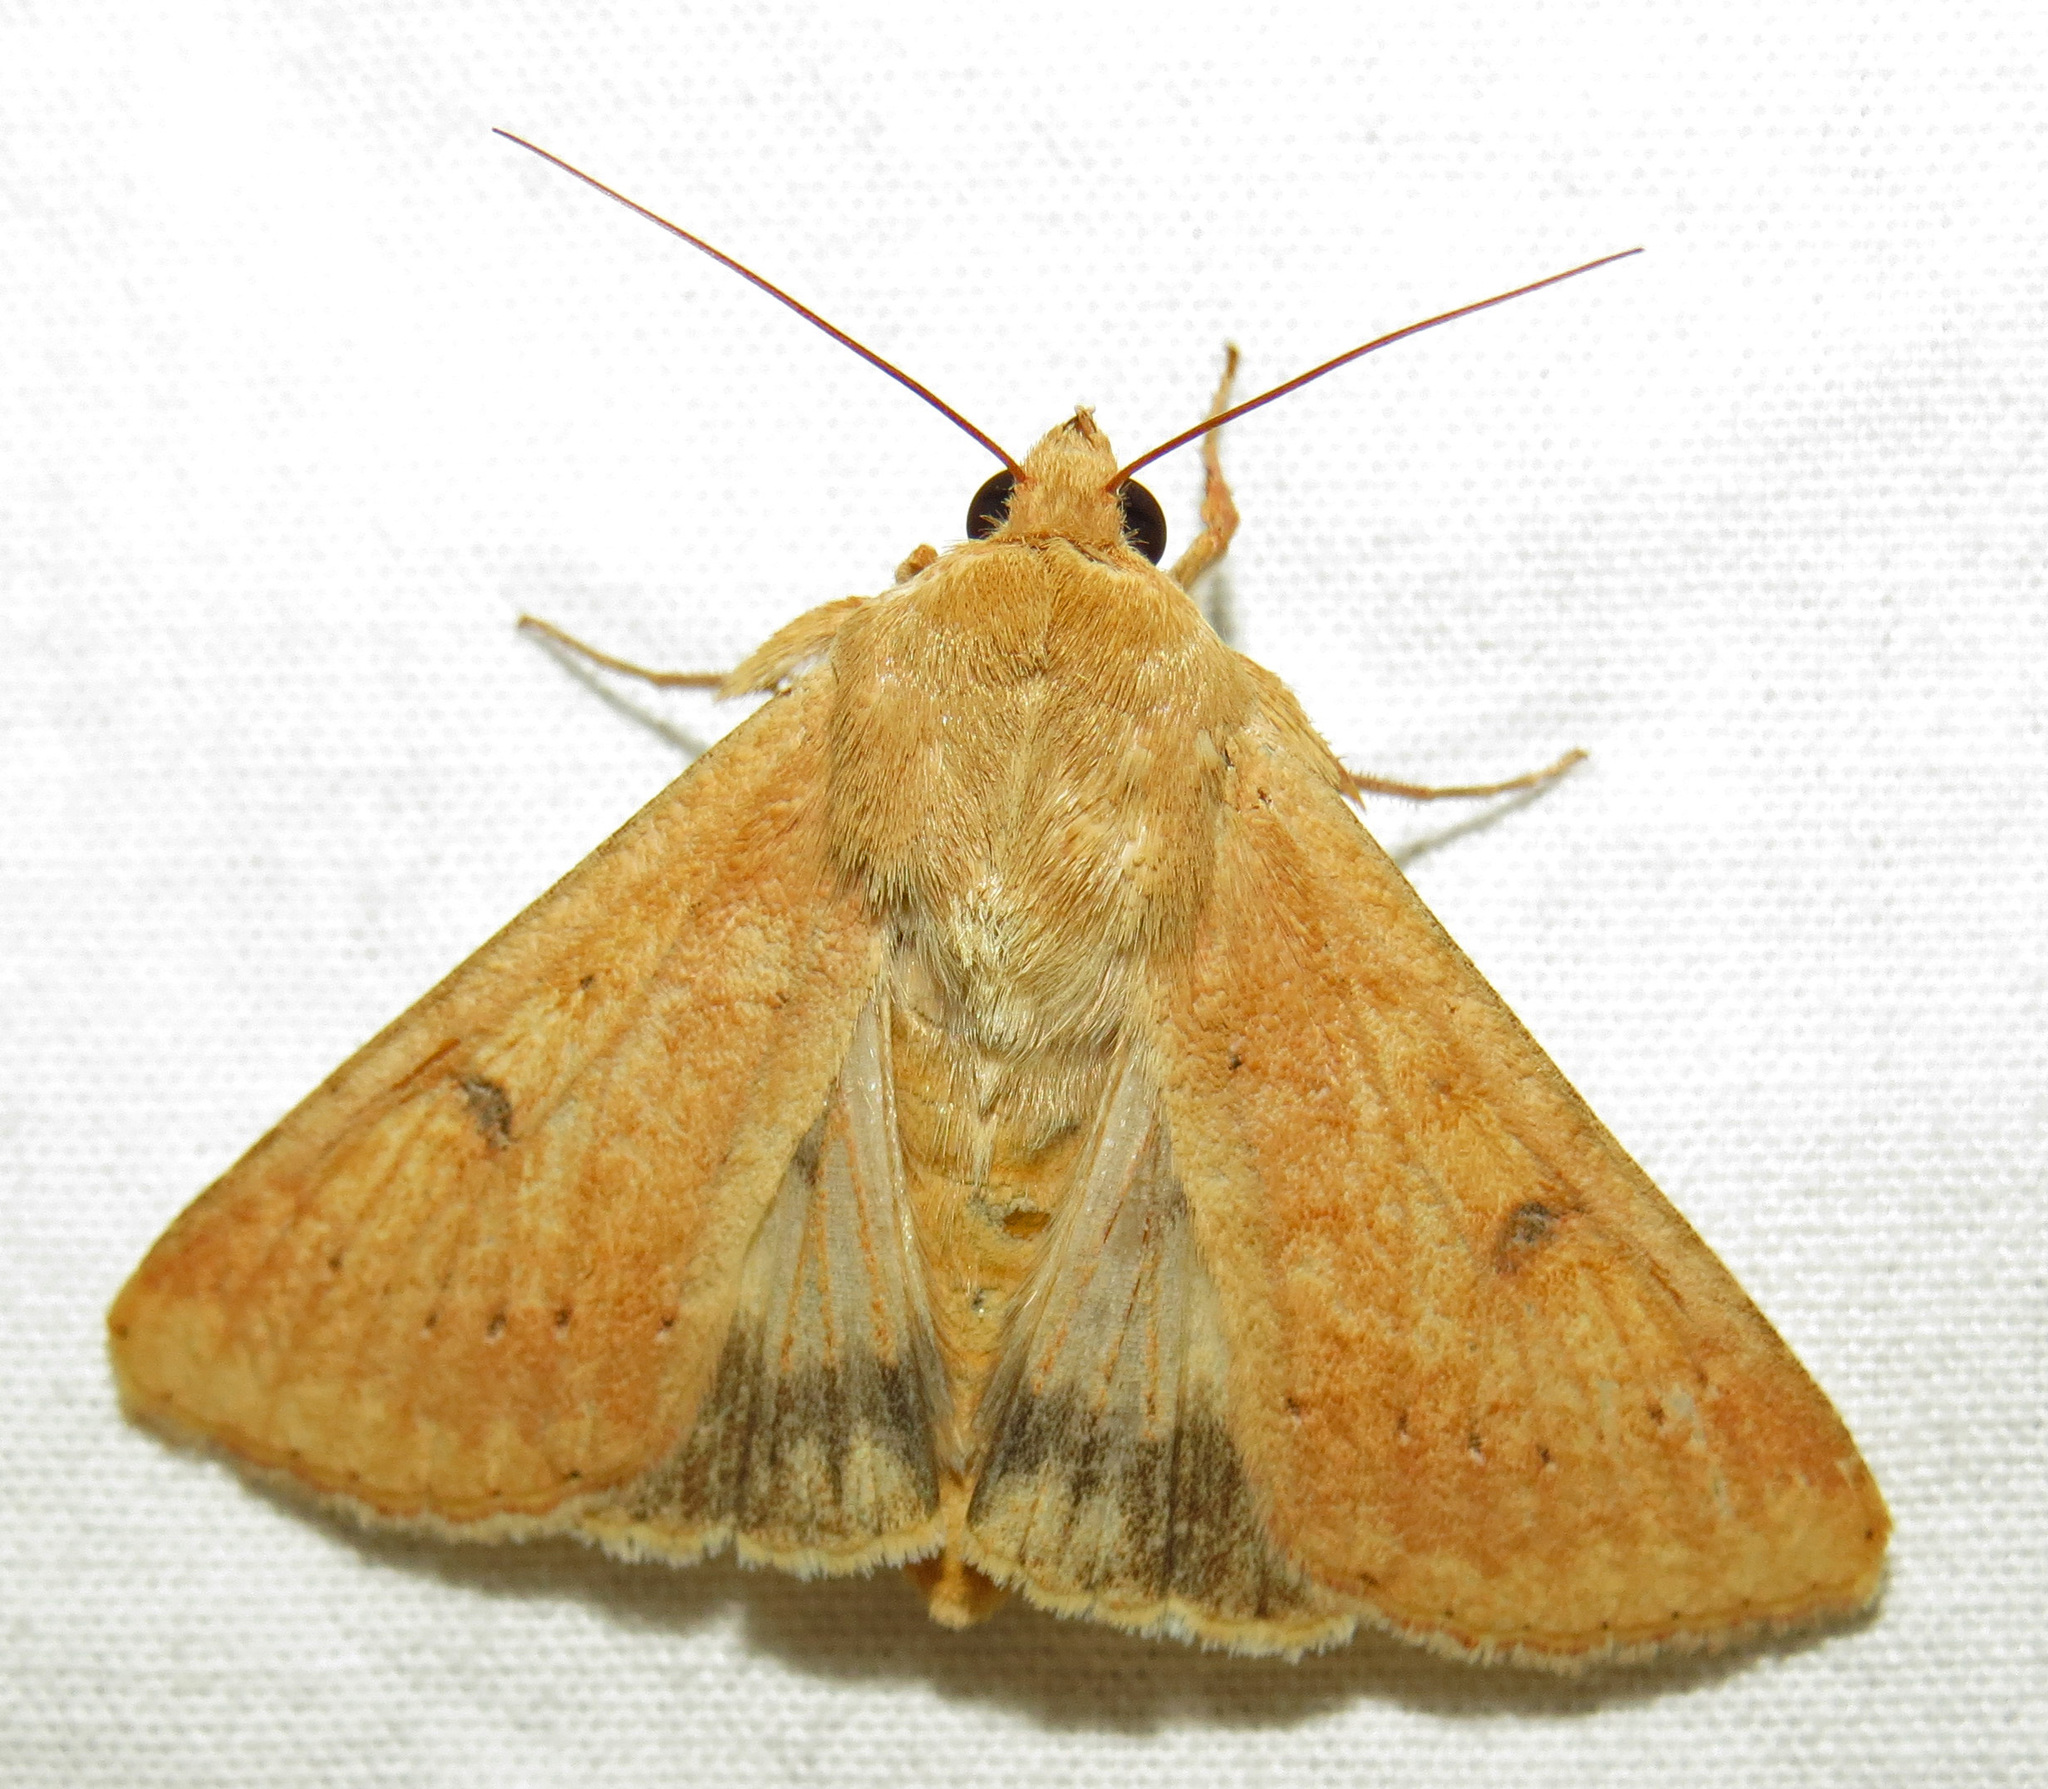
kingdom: Animalia
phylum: Arthropoda
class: Insecta
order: Lepidoptera
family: Noctuidae
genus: Helicoverpa
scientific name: Helicoverpa zea
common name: Bollworm
